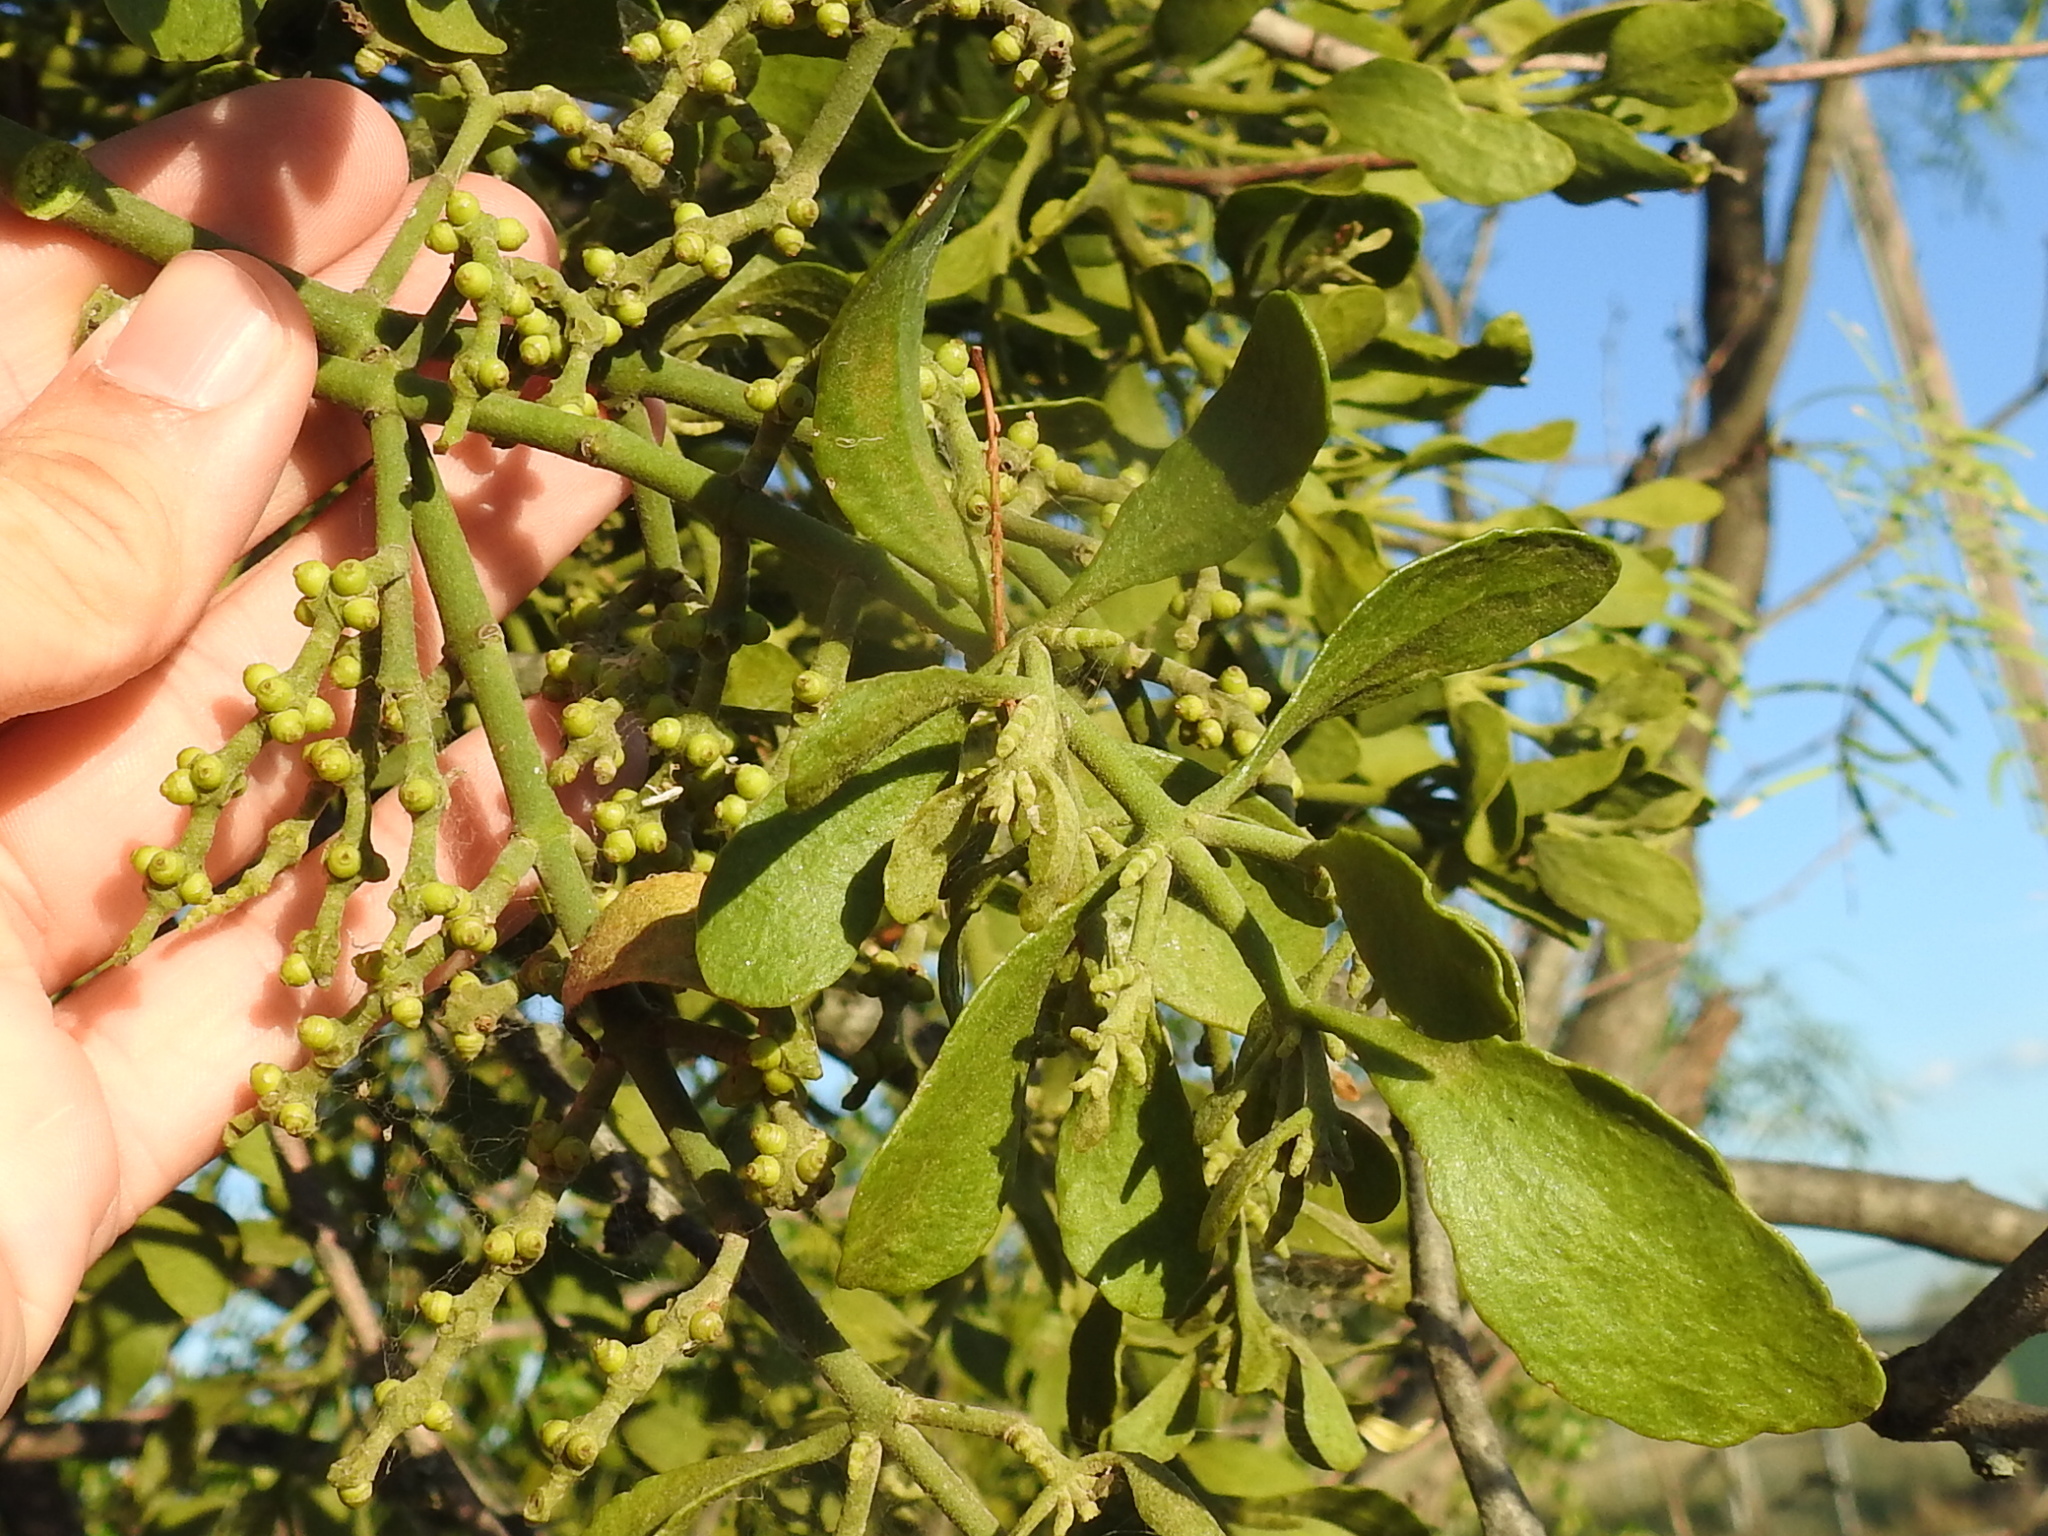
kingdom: Plantae
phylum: Tracheophyta
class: Magnoliopsida
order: Santalales
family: Viscaceae
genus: Phoradendron
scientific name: Phoradendron leucarpum
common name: Pacific mistletoe
